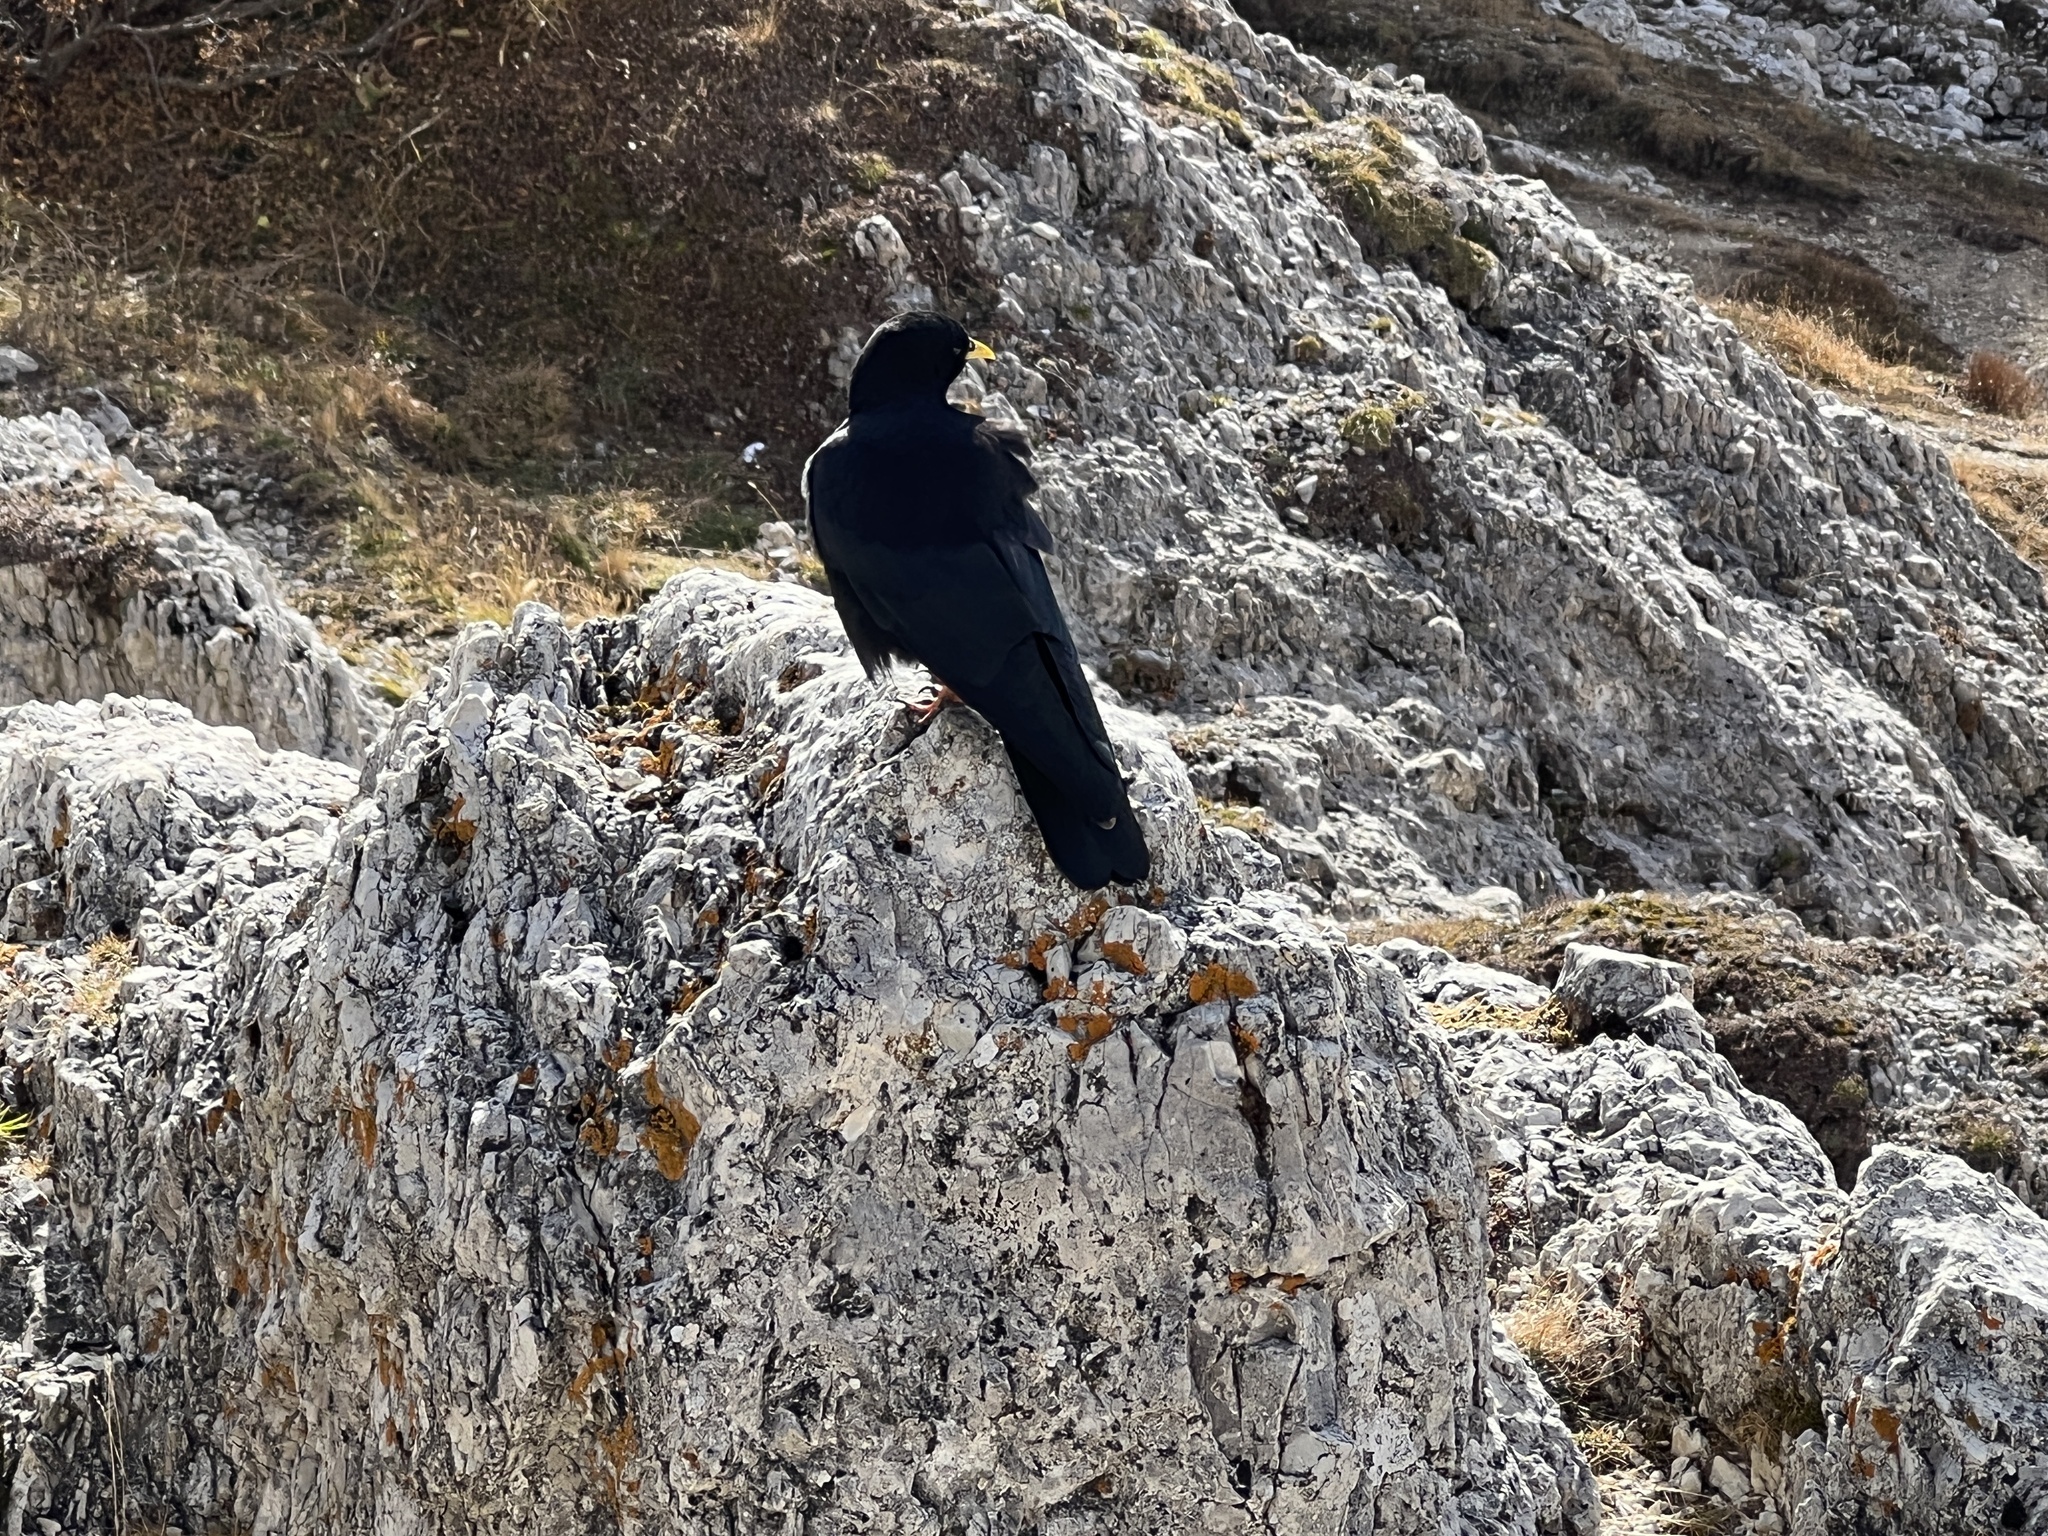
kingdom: Animalia
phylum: Chordata
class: Aves
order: Passeriformes
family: Corvidae
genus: Pyrrhocorax
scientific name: Pyrrhocorax graculus
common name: Alpine chough
